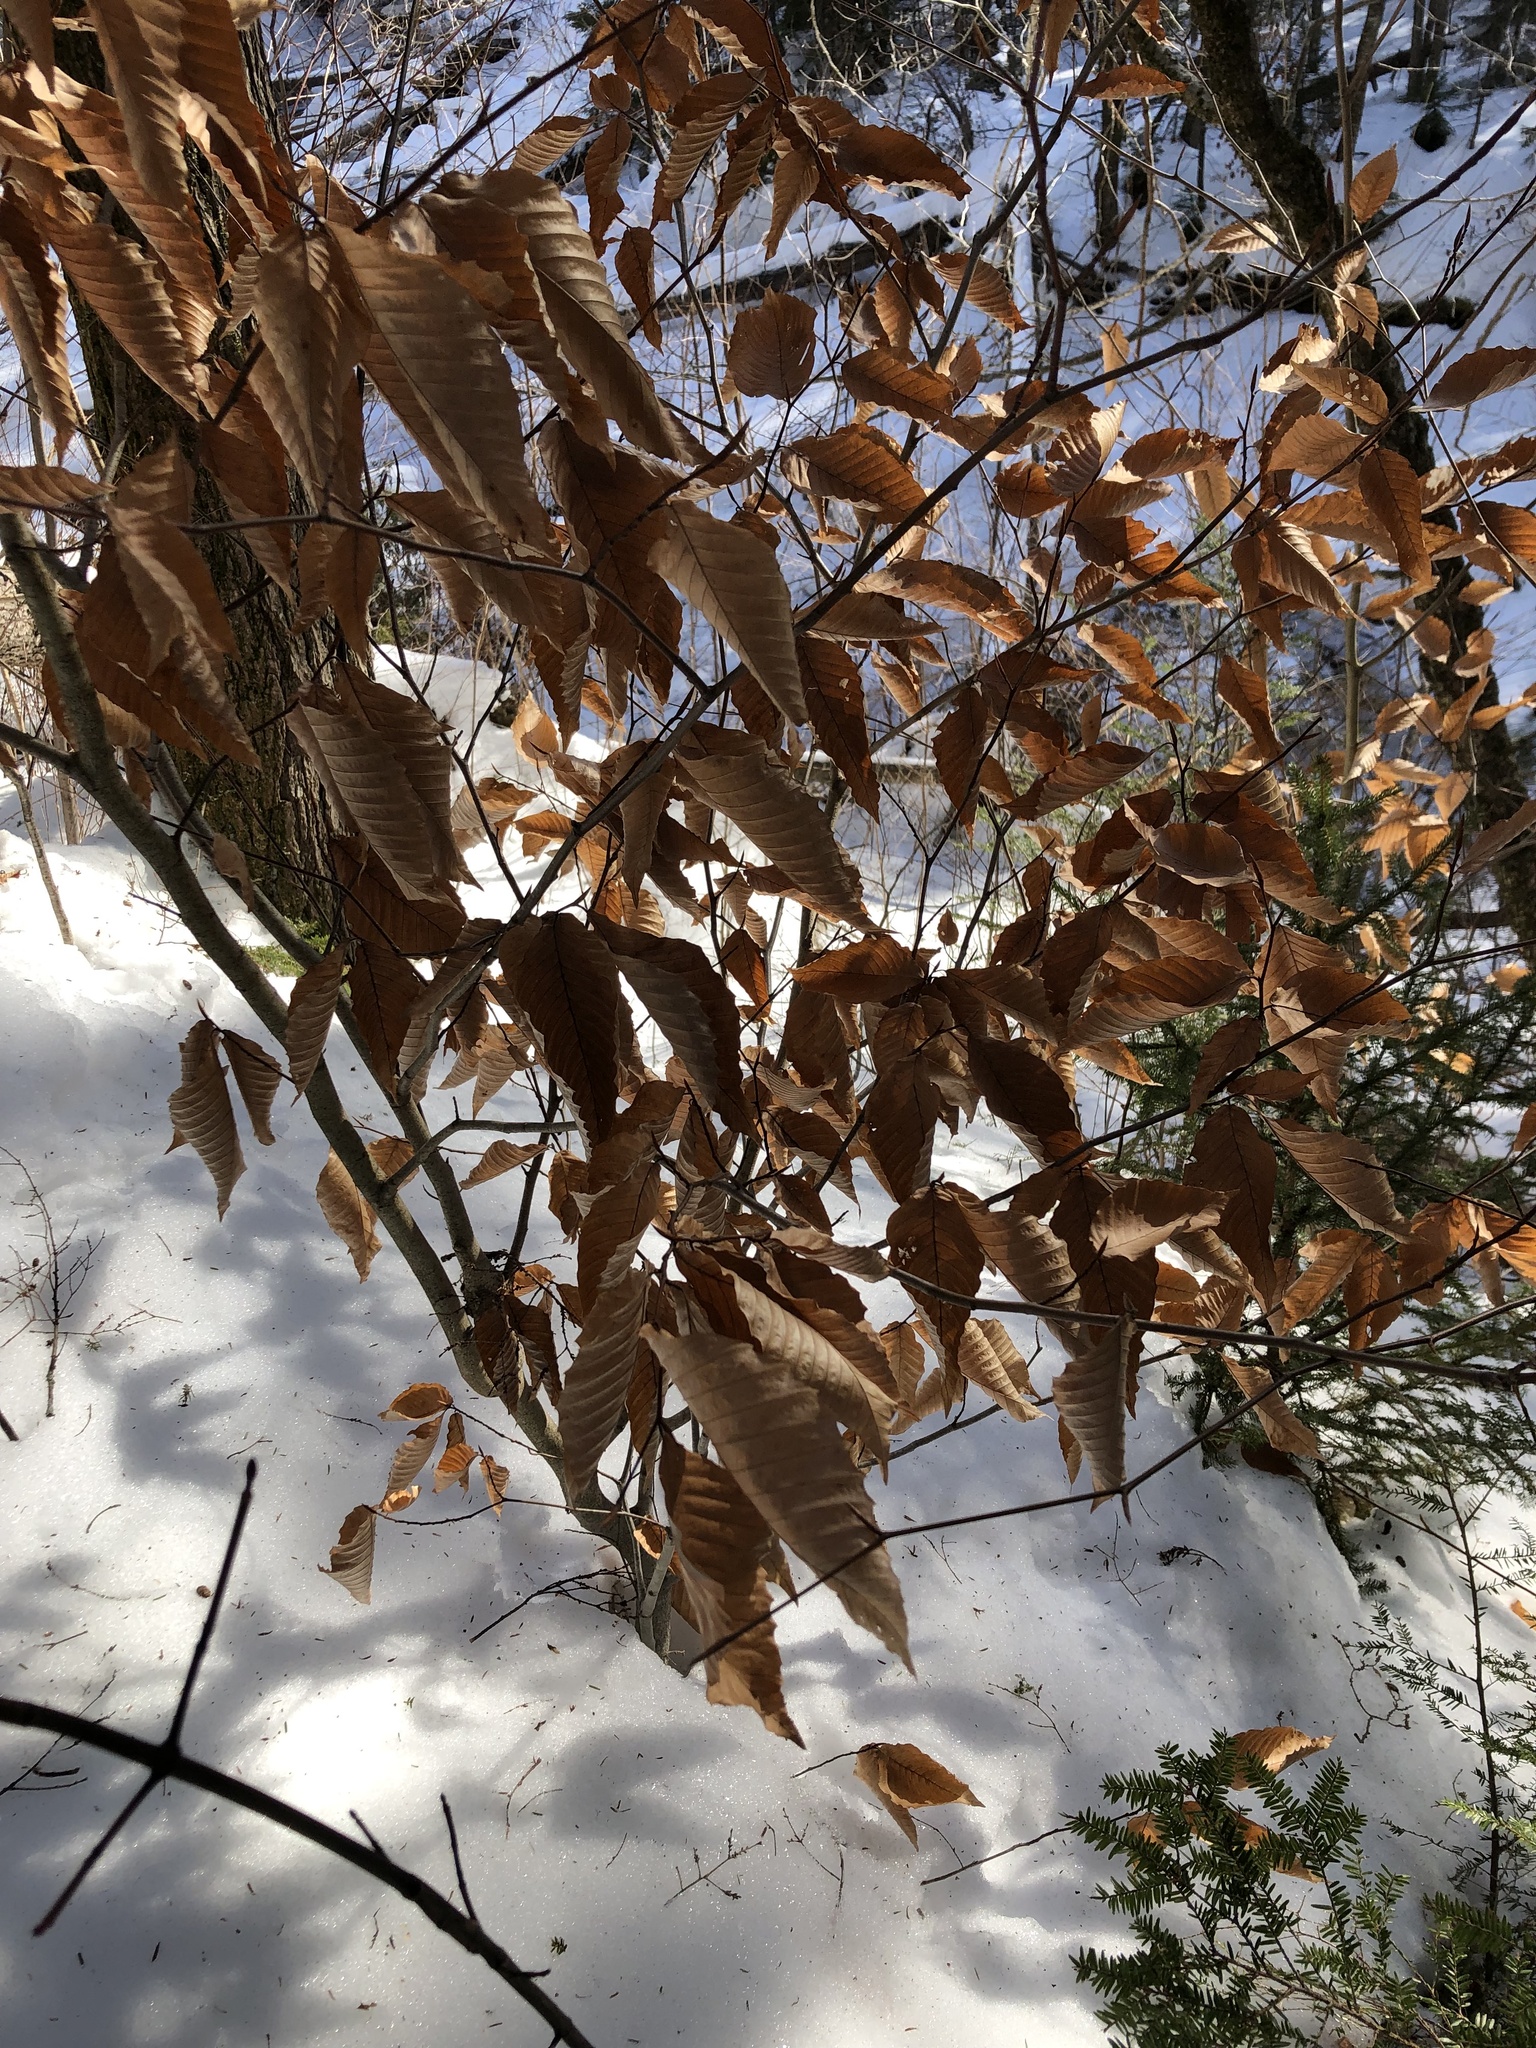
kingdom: Plantae
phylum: Tracheophyta
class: Magnoliopsida
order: Fagales
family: Fagaceae
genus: Fagus
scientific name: Fagus grandifolia
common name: American beech
